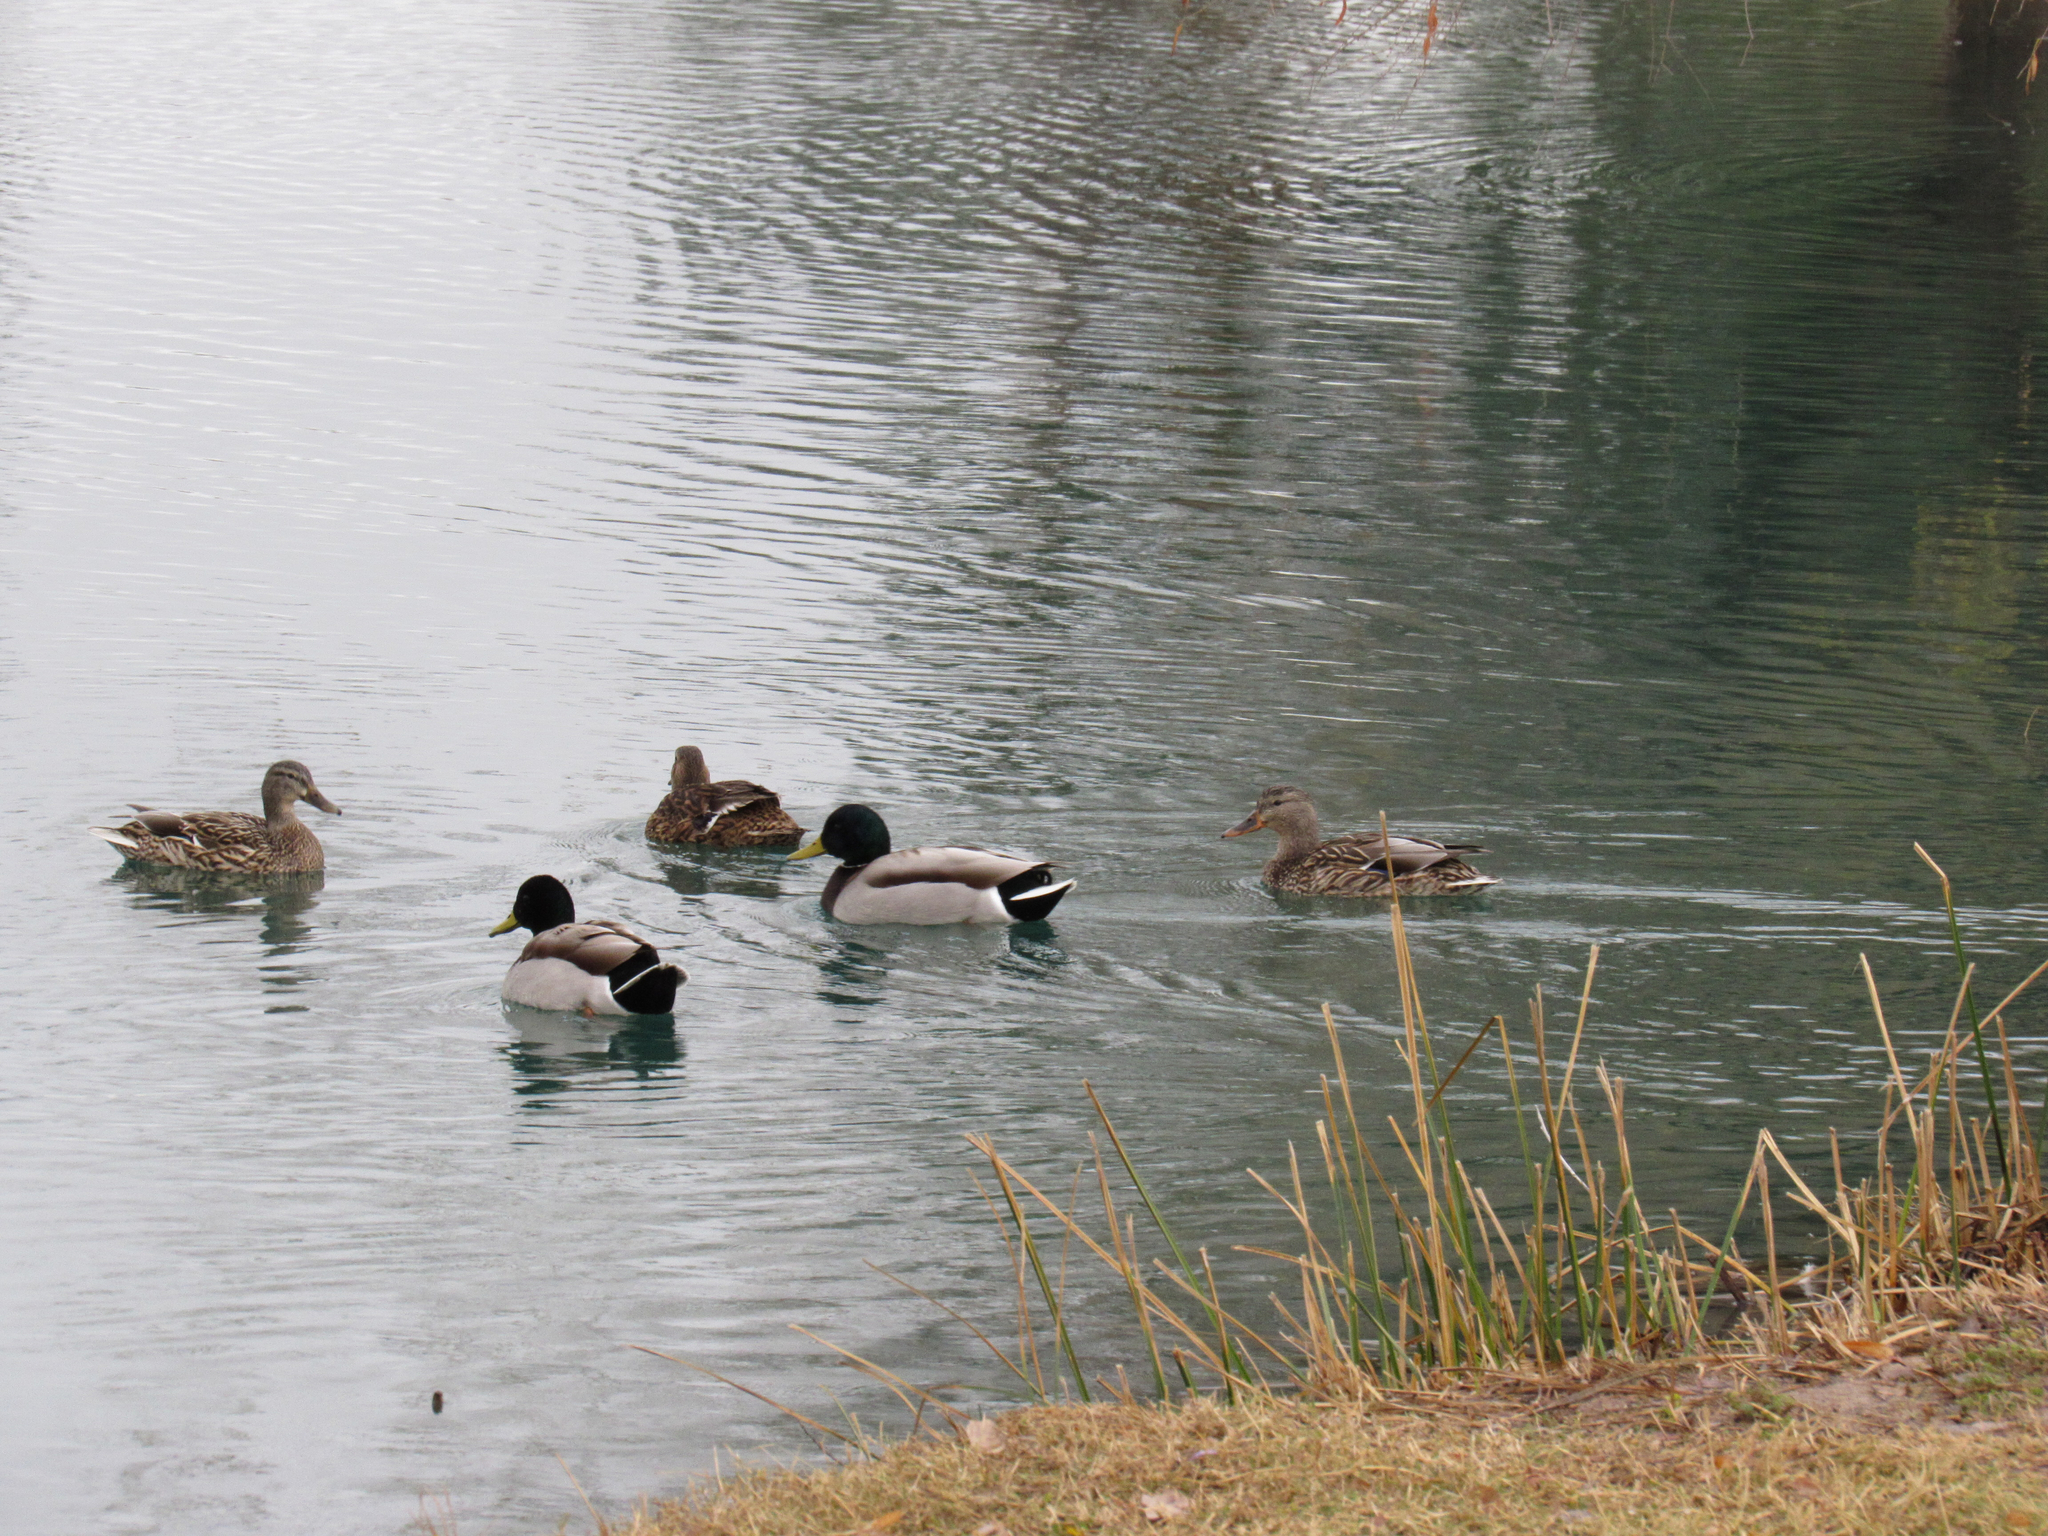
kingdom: Animalia
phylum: Chordata
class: Aves
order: Anseriformes
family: Anatidae
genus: Anas
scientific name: Anas platyrhynchos
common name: Mallard
